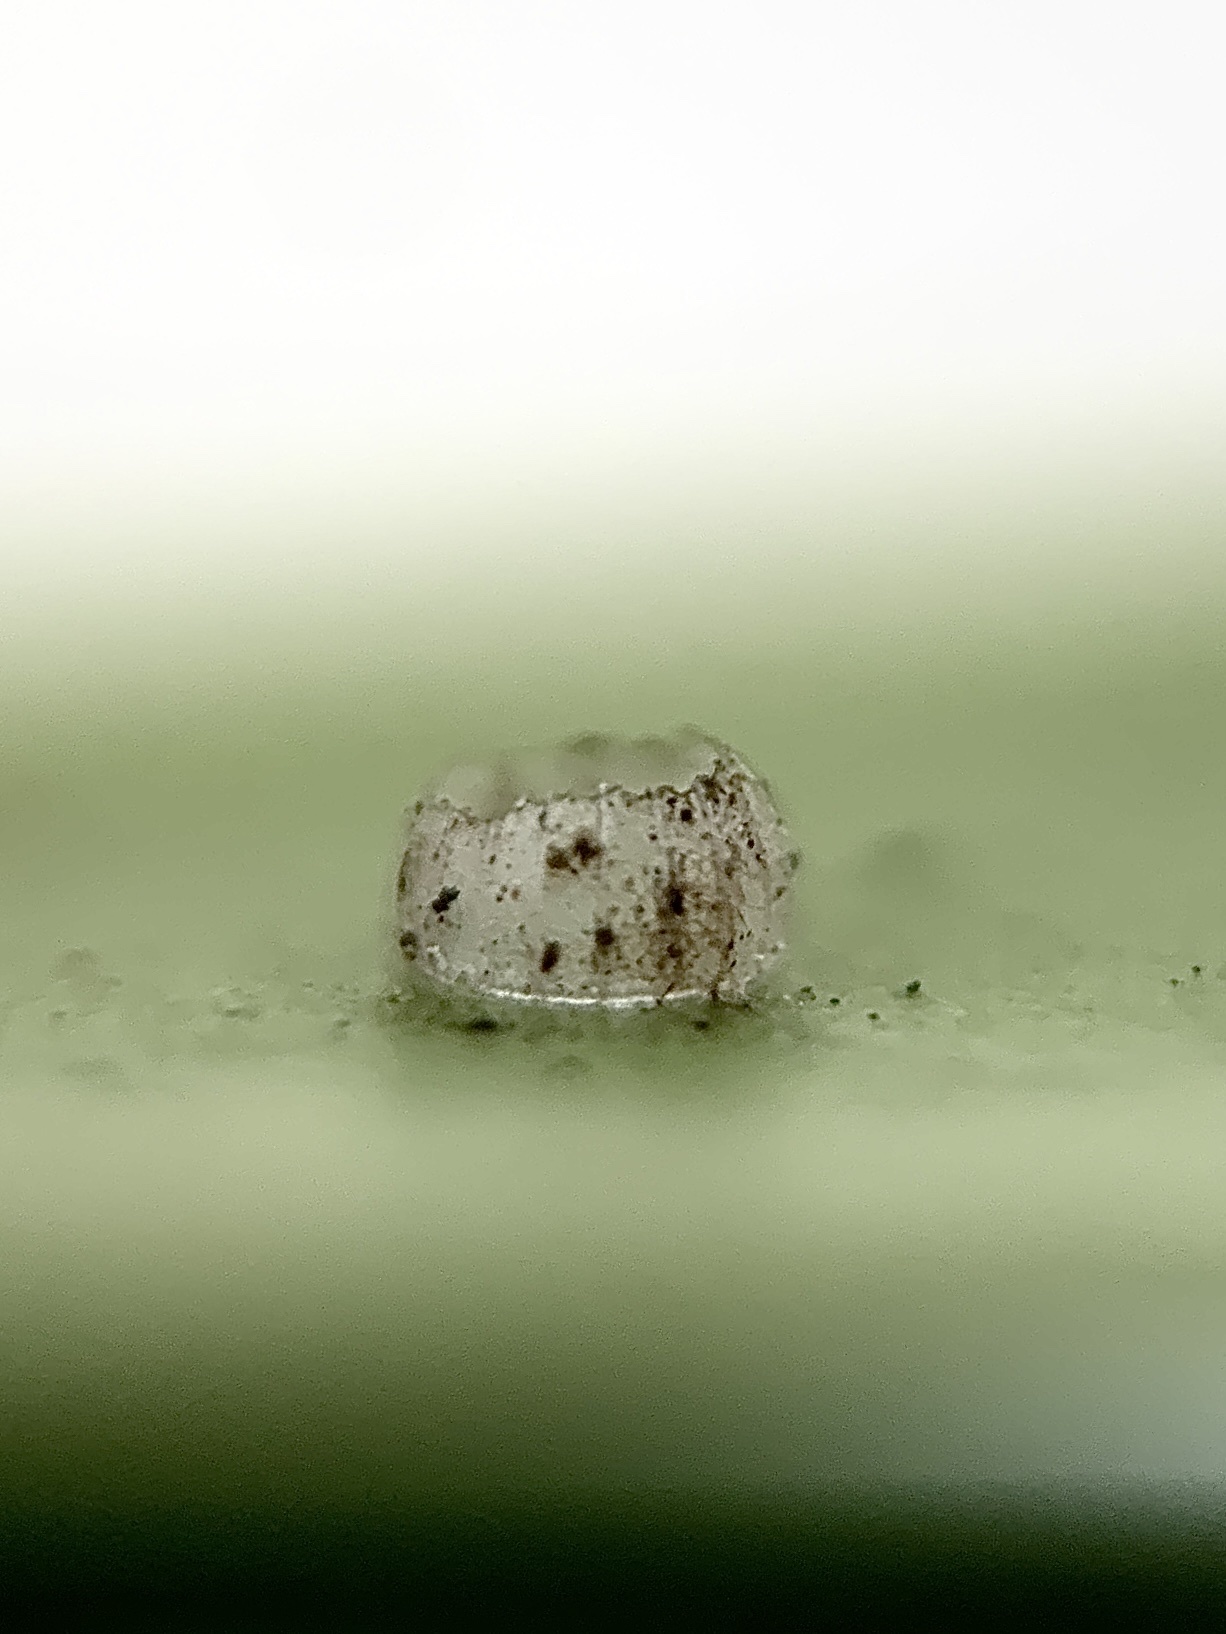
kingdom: Animalia
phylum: Arthropoda
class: Insecta
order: Lepidoptera
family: Hesperiidae
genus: Phocides
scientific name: Phocides pigmalion
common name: Mangrove skipper
